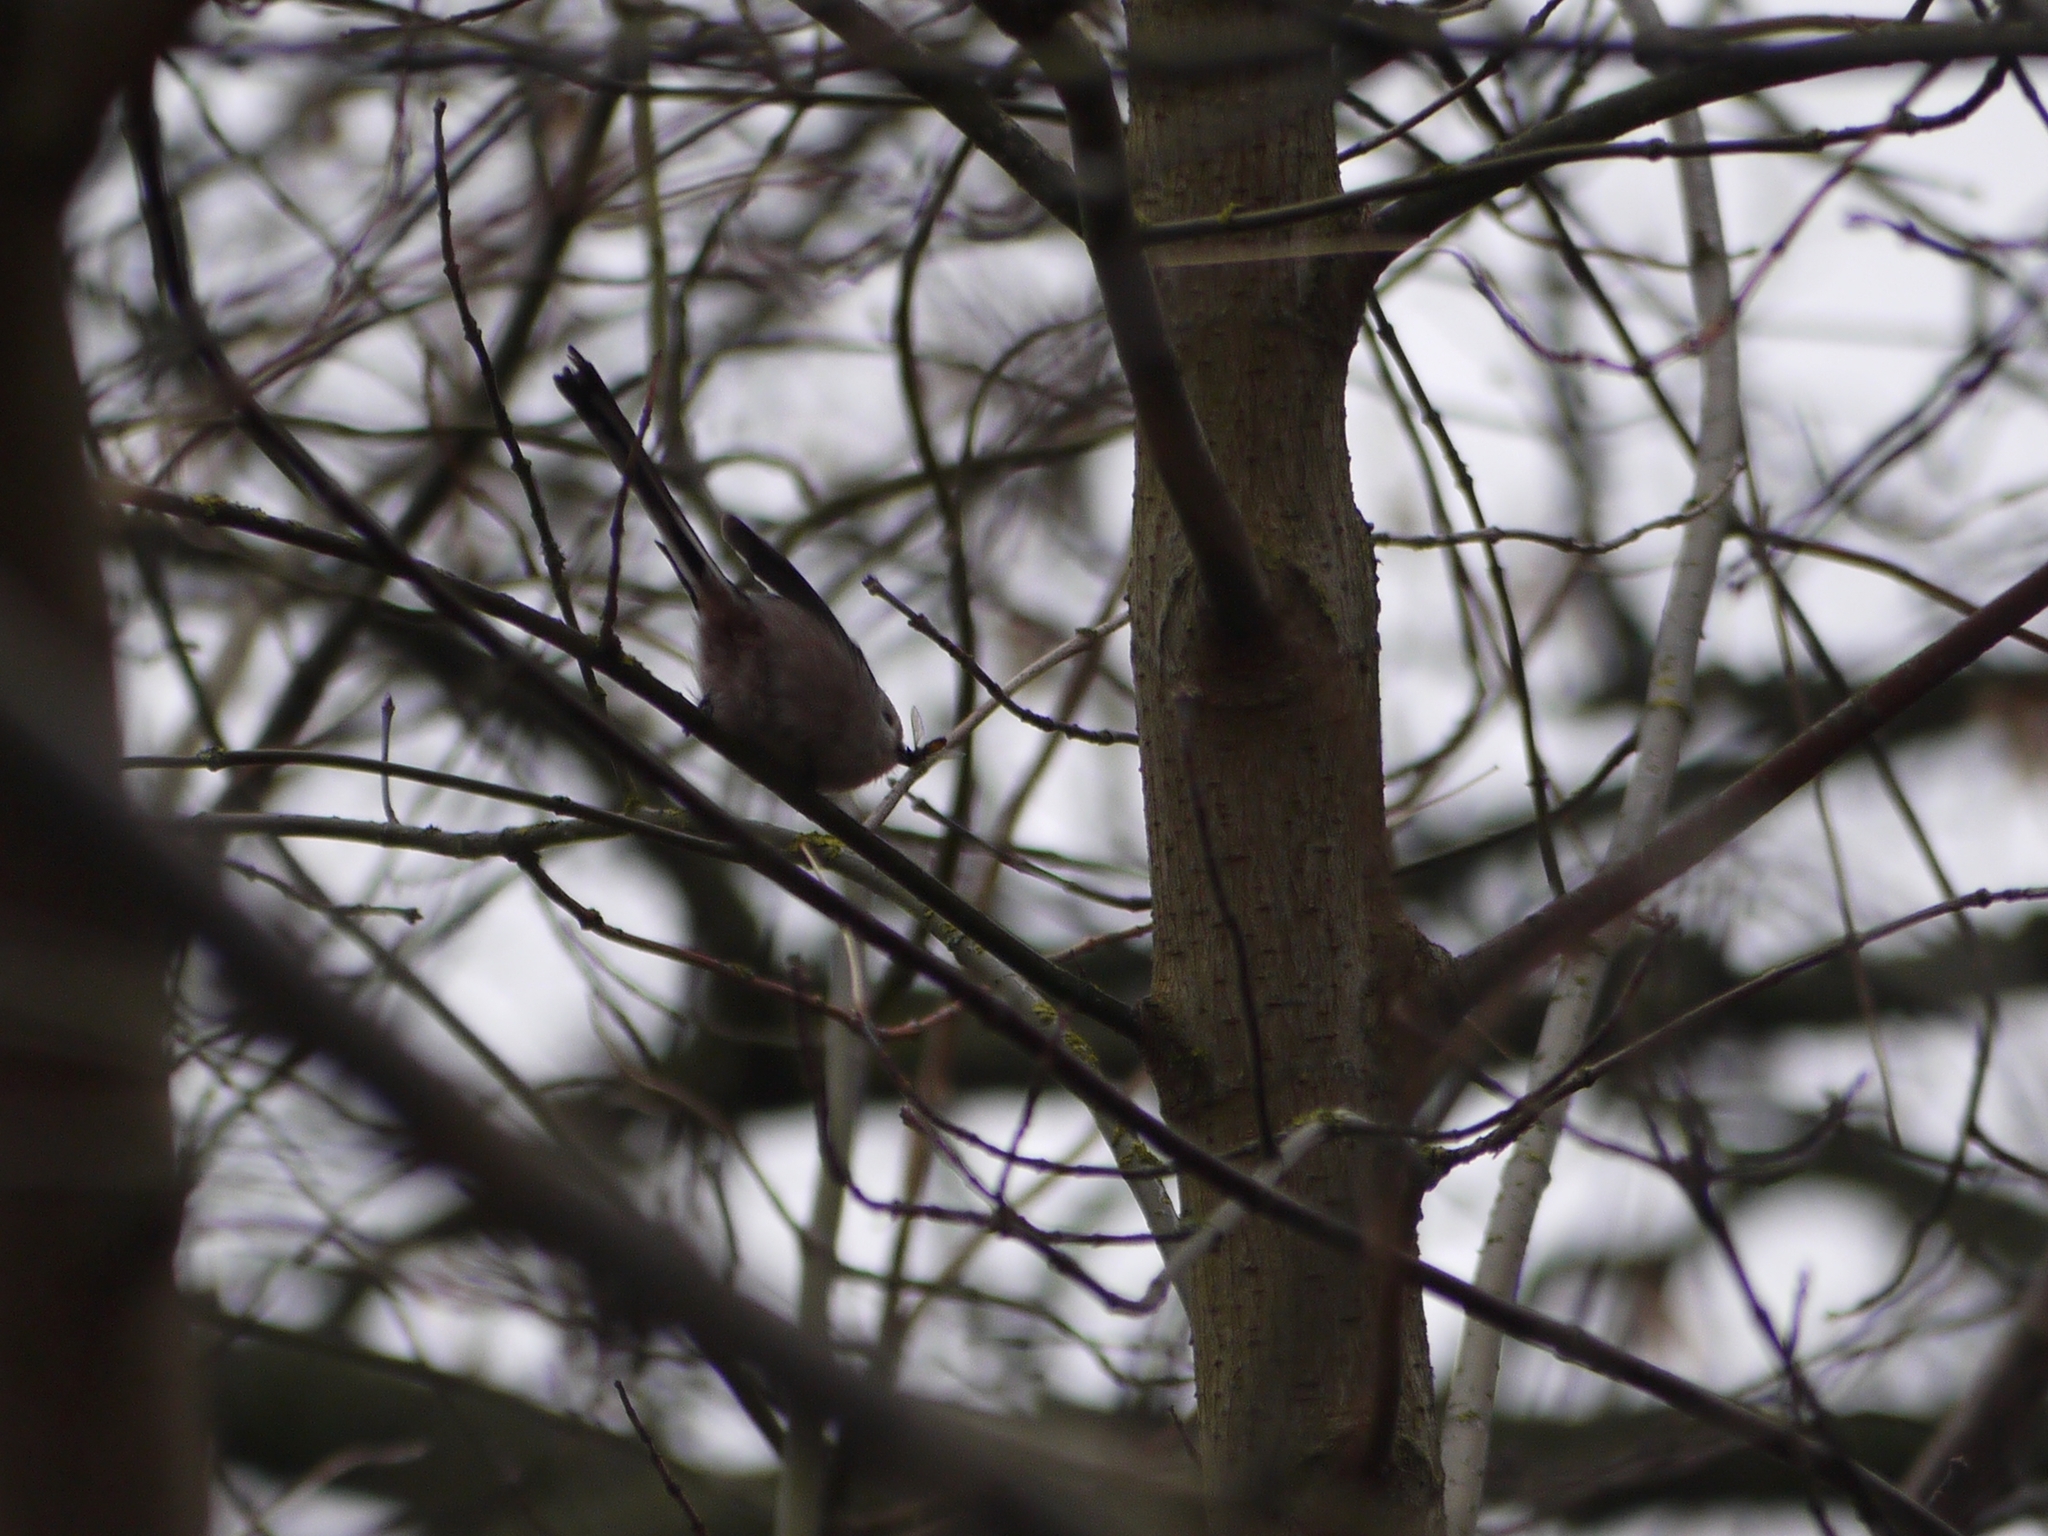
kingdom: Animalia
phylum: Chordata
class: Aves
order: Passeriformes
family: Aegithalidae
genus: Aegithalos
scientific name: Aegithalos caudatus
